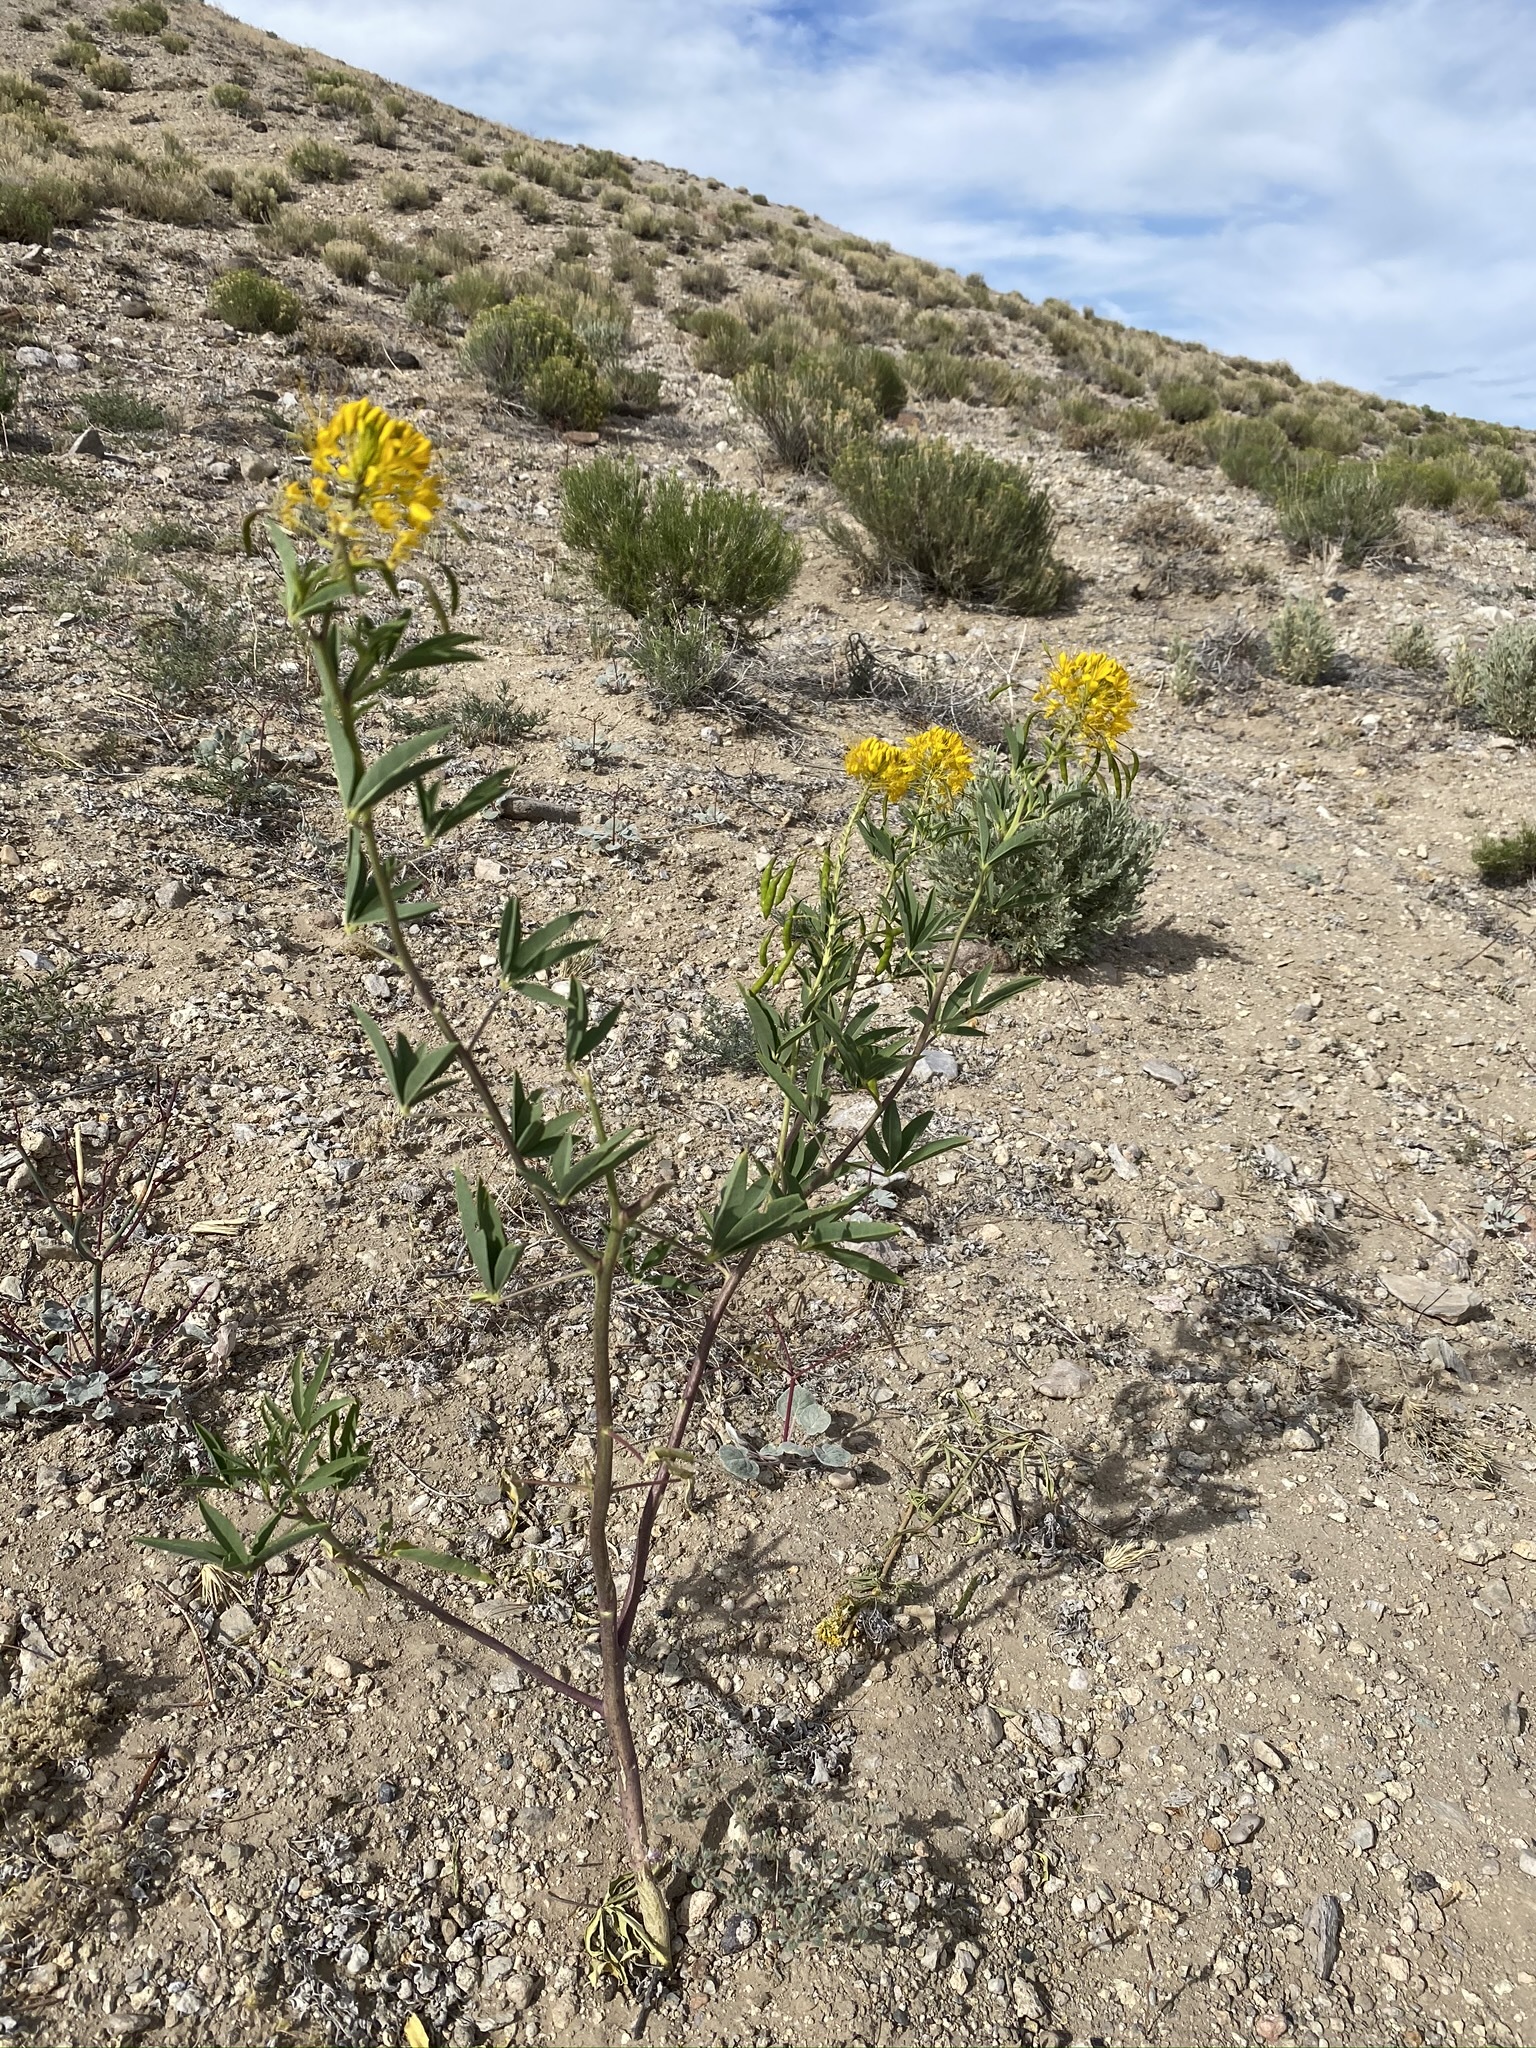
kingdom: Plantae
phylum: Tracheophyta
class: Magnoliopsida
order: Brassicales
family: Cleomaceae
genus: Cleomella
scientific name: Cleomella lutea
